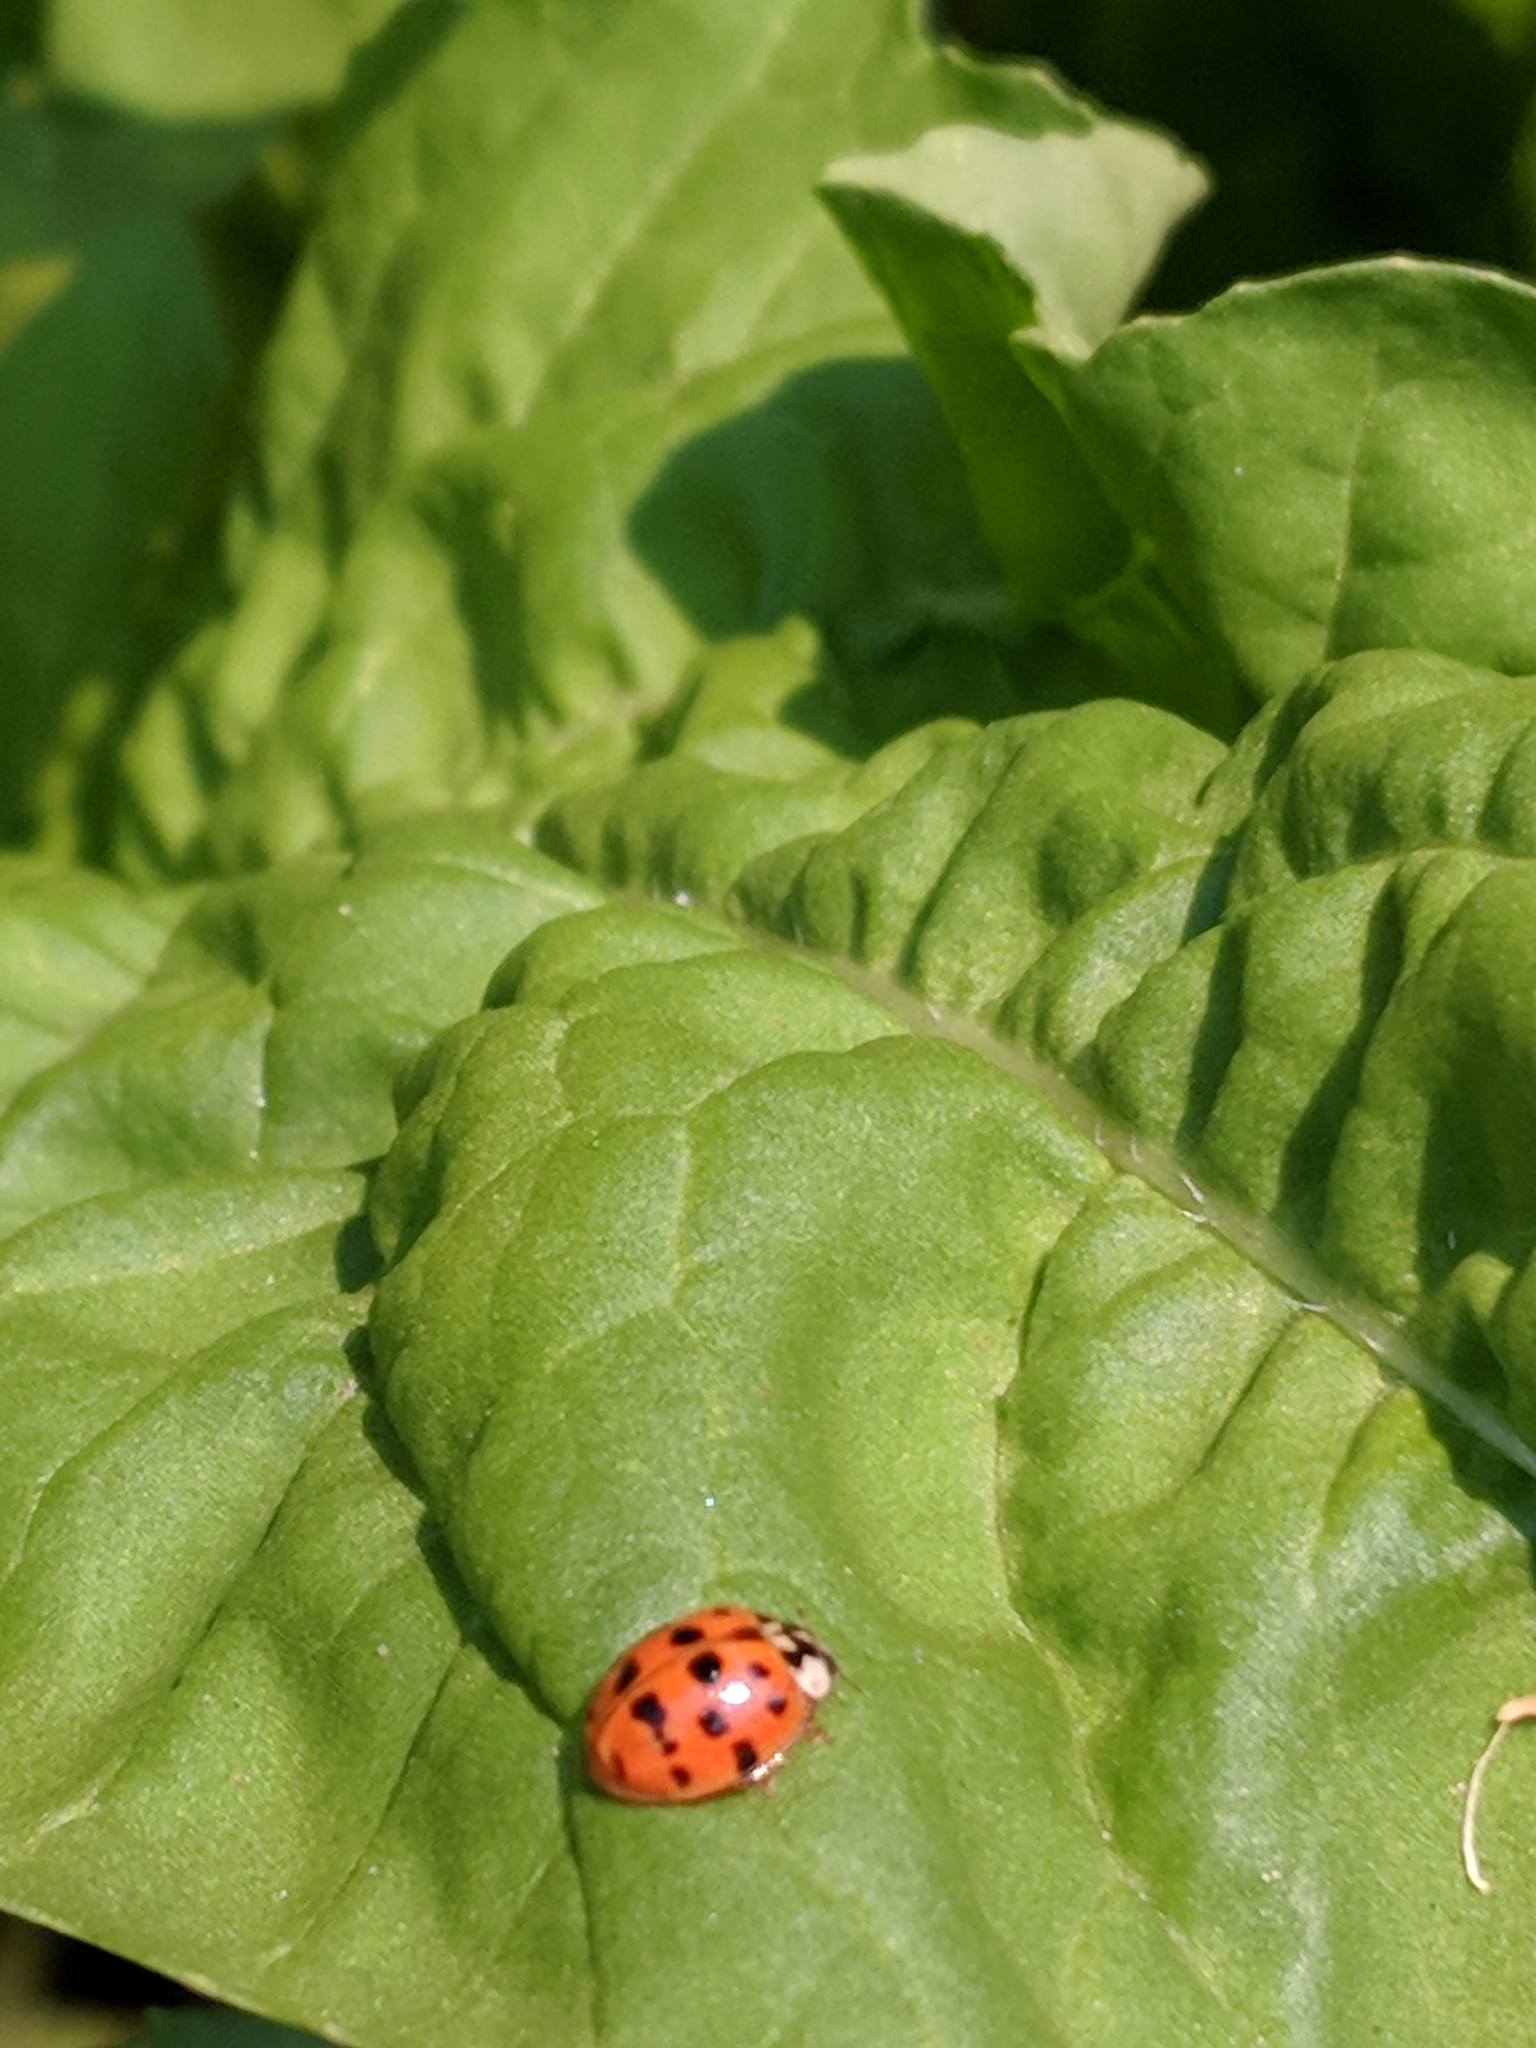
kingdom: Animalia
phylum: Arthropoda
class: Insecta
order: Coleoptera
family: Coccinellidae
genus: Harmonia
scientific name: Harmonia axyridis
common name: Harlequin ladybird
